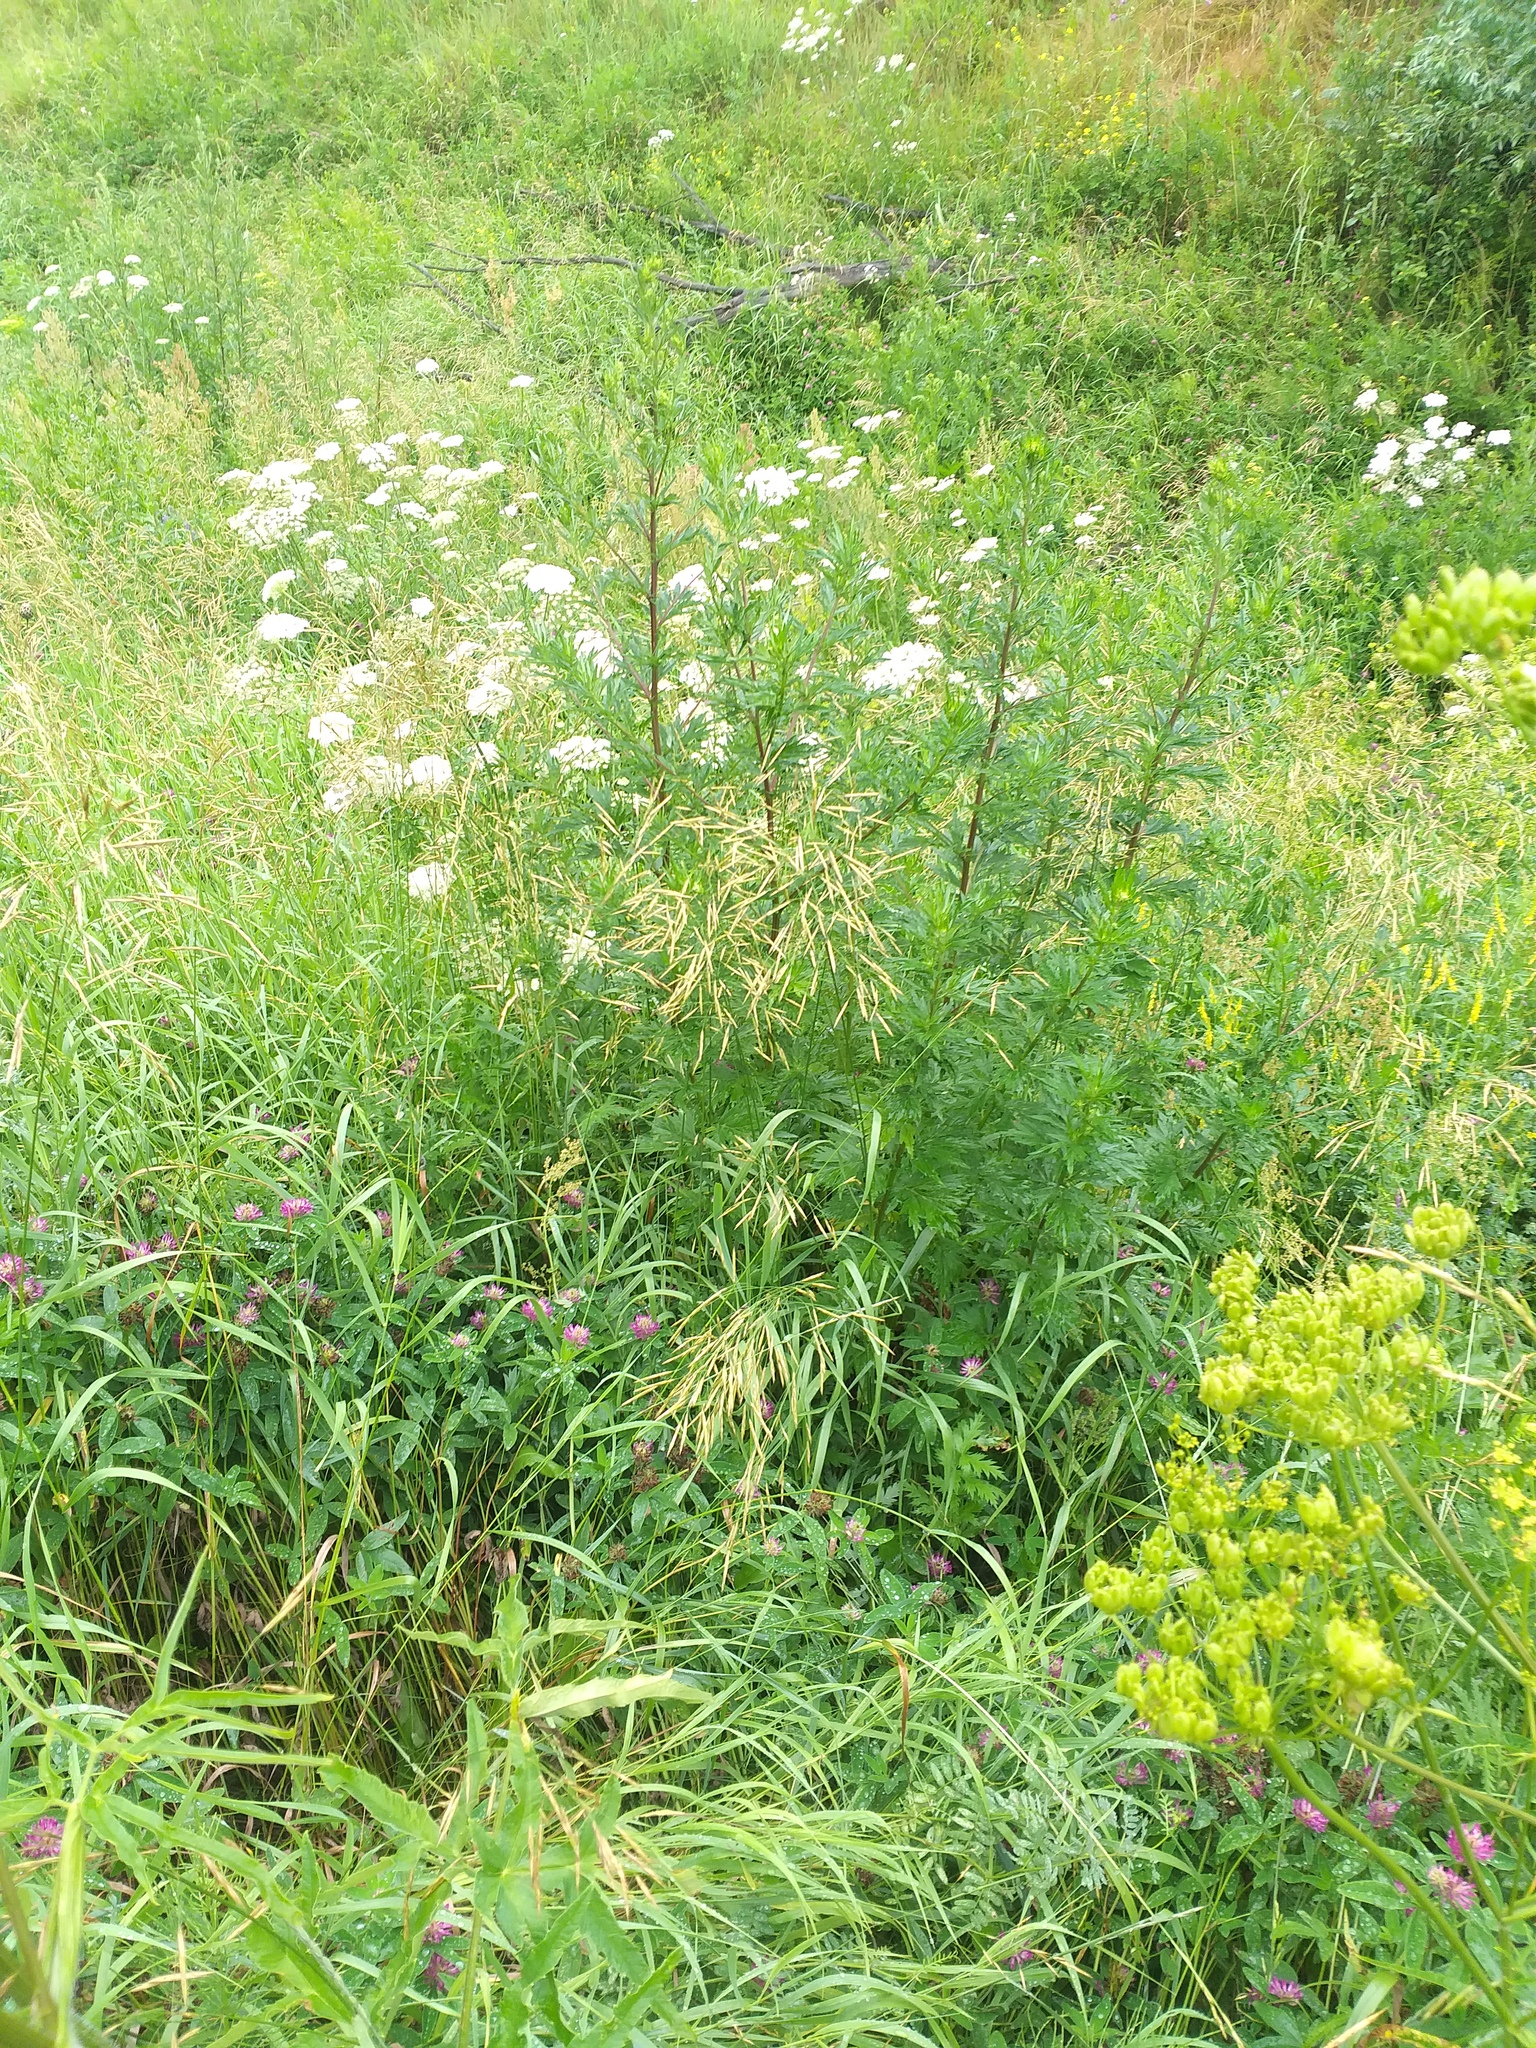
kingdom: Plantae
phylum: Tracheophyta
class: Liliopsida
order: Poales
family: Poaceae
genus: Bromus
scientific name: Bromus inermis
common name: Smooth brome
